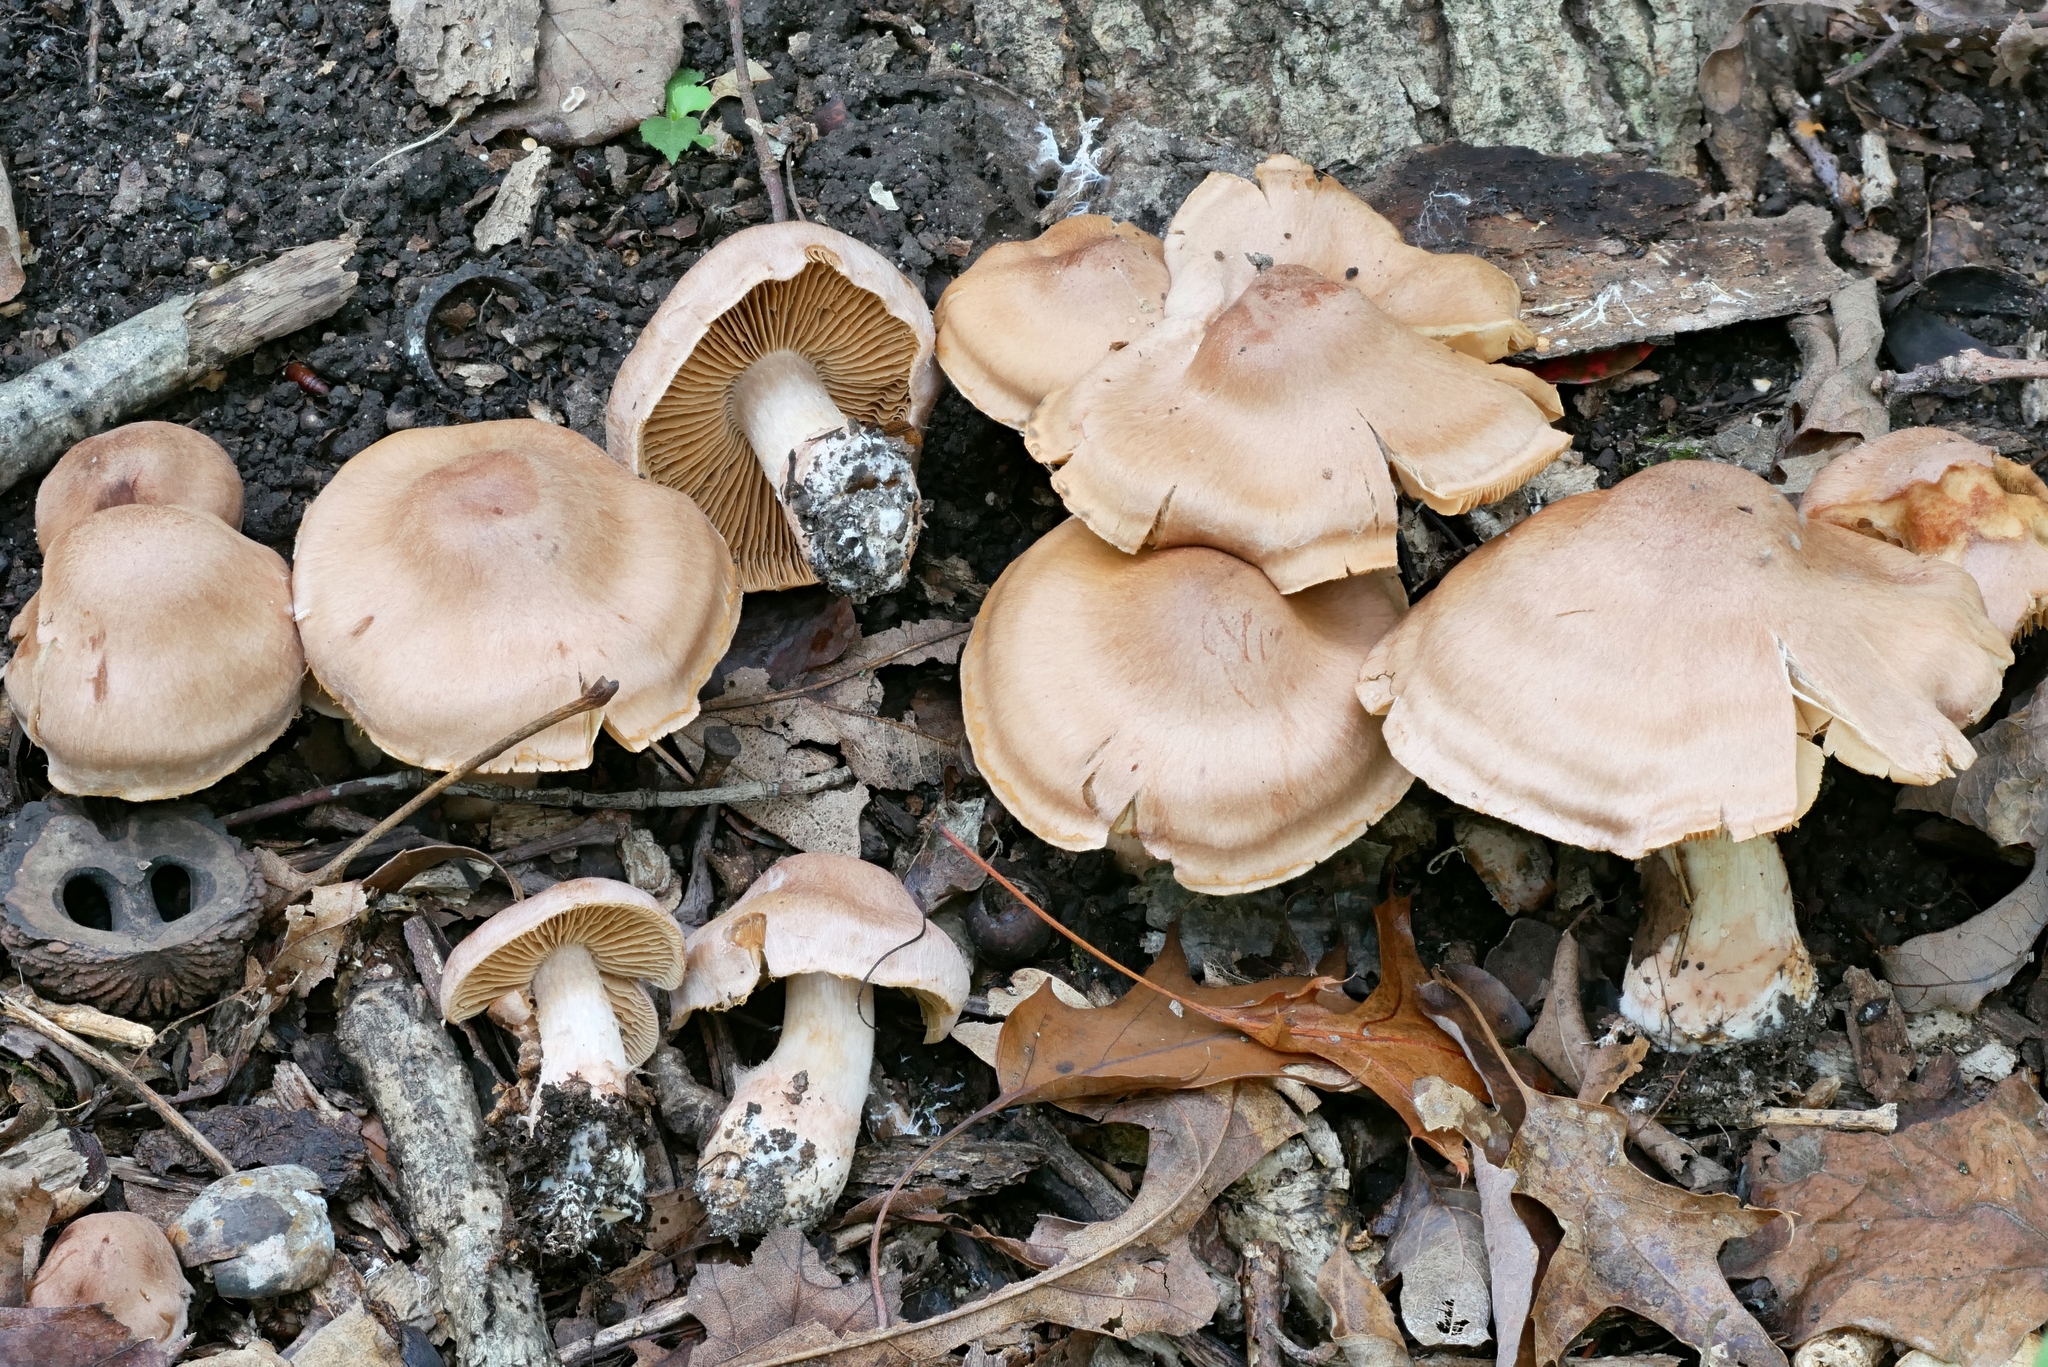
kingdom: Fungi
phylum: Basidiomycota
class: Agaricomycetes
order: Agaricales
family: Cortinariaceae
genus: Cortinarius
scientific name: Cortinarius veregregius
